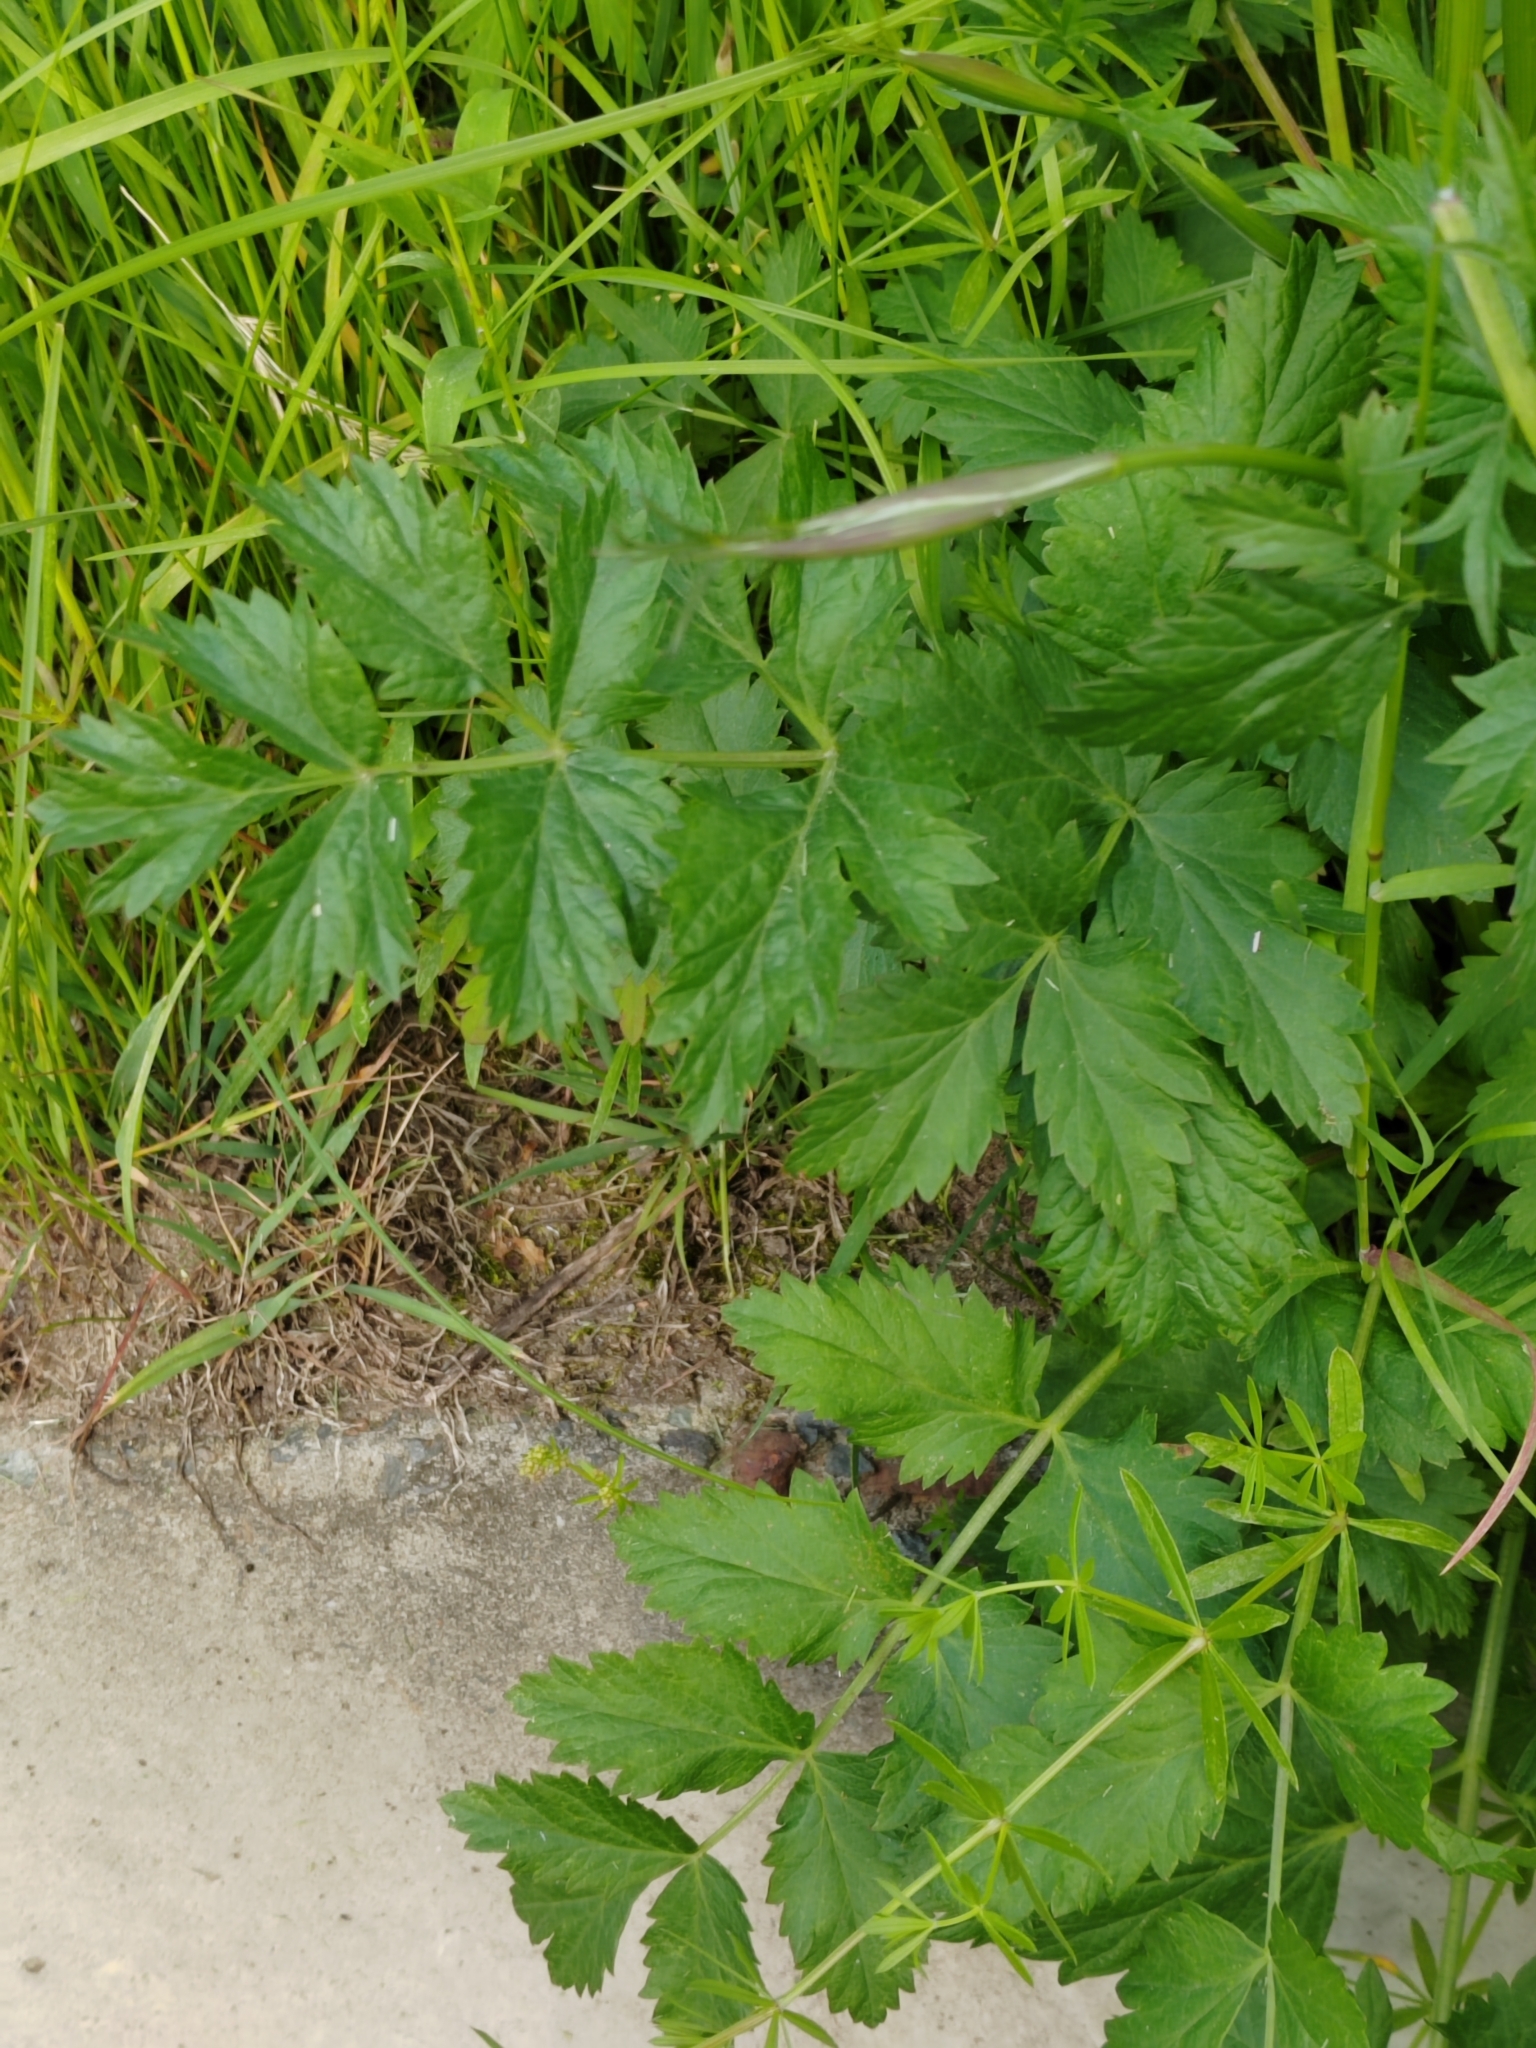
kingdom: Plantae
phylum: Tracheophyta
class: Magnoliopsida
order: Apiales
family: Apiaceae
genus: Pastinaca
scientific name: Pastinaca sativa
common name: Wild parsnip
